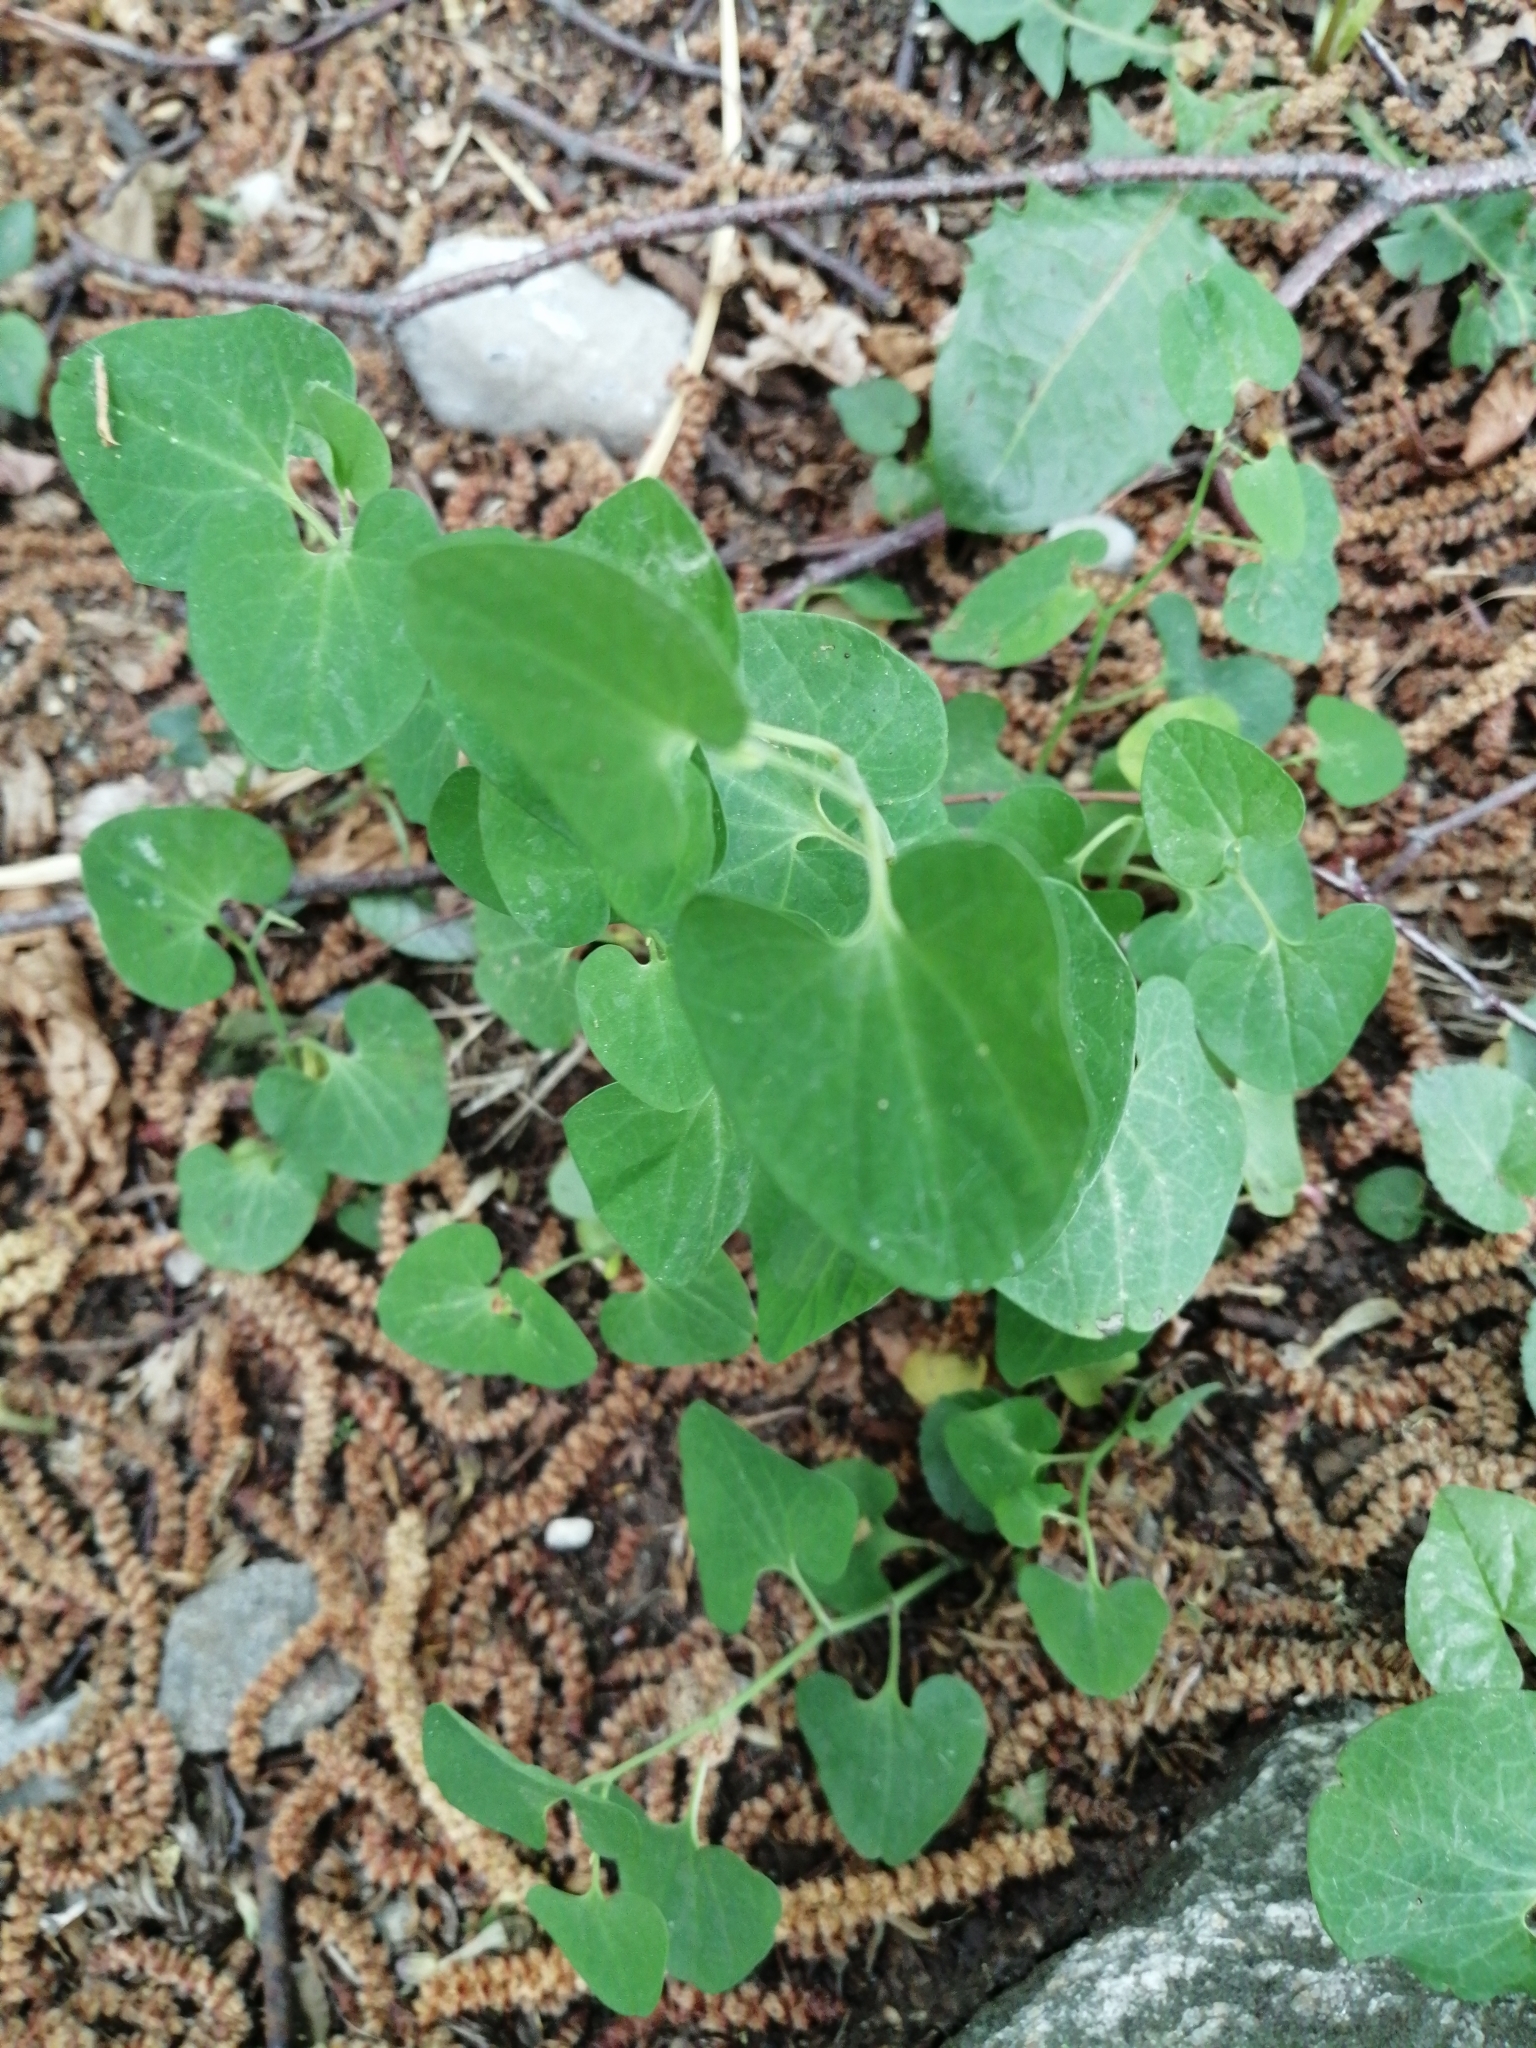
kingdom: Plantae
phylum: Tracheophyta
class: Magnoliopsida
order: Piperales
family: Aristolochiaceae
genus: Aristolochia
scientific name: Aristolochia pallida
